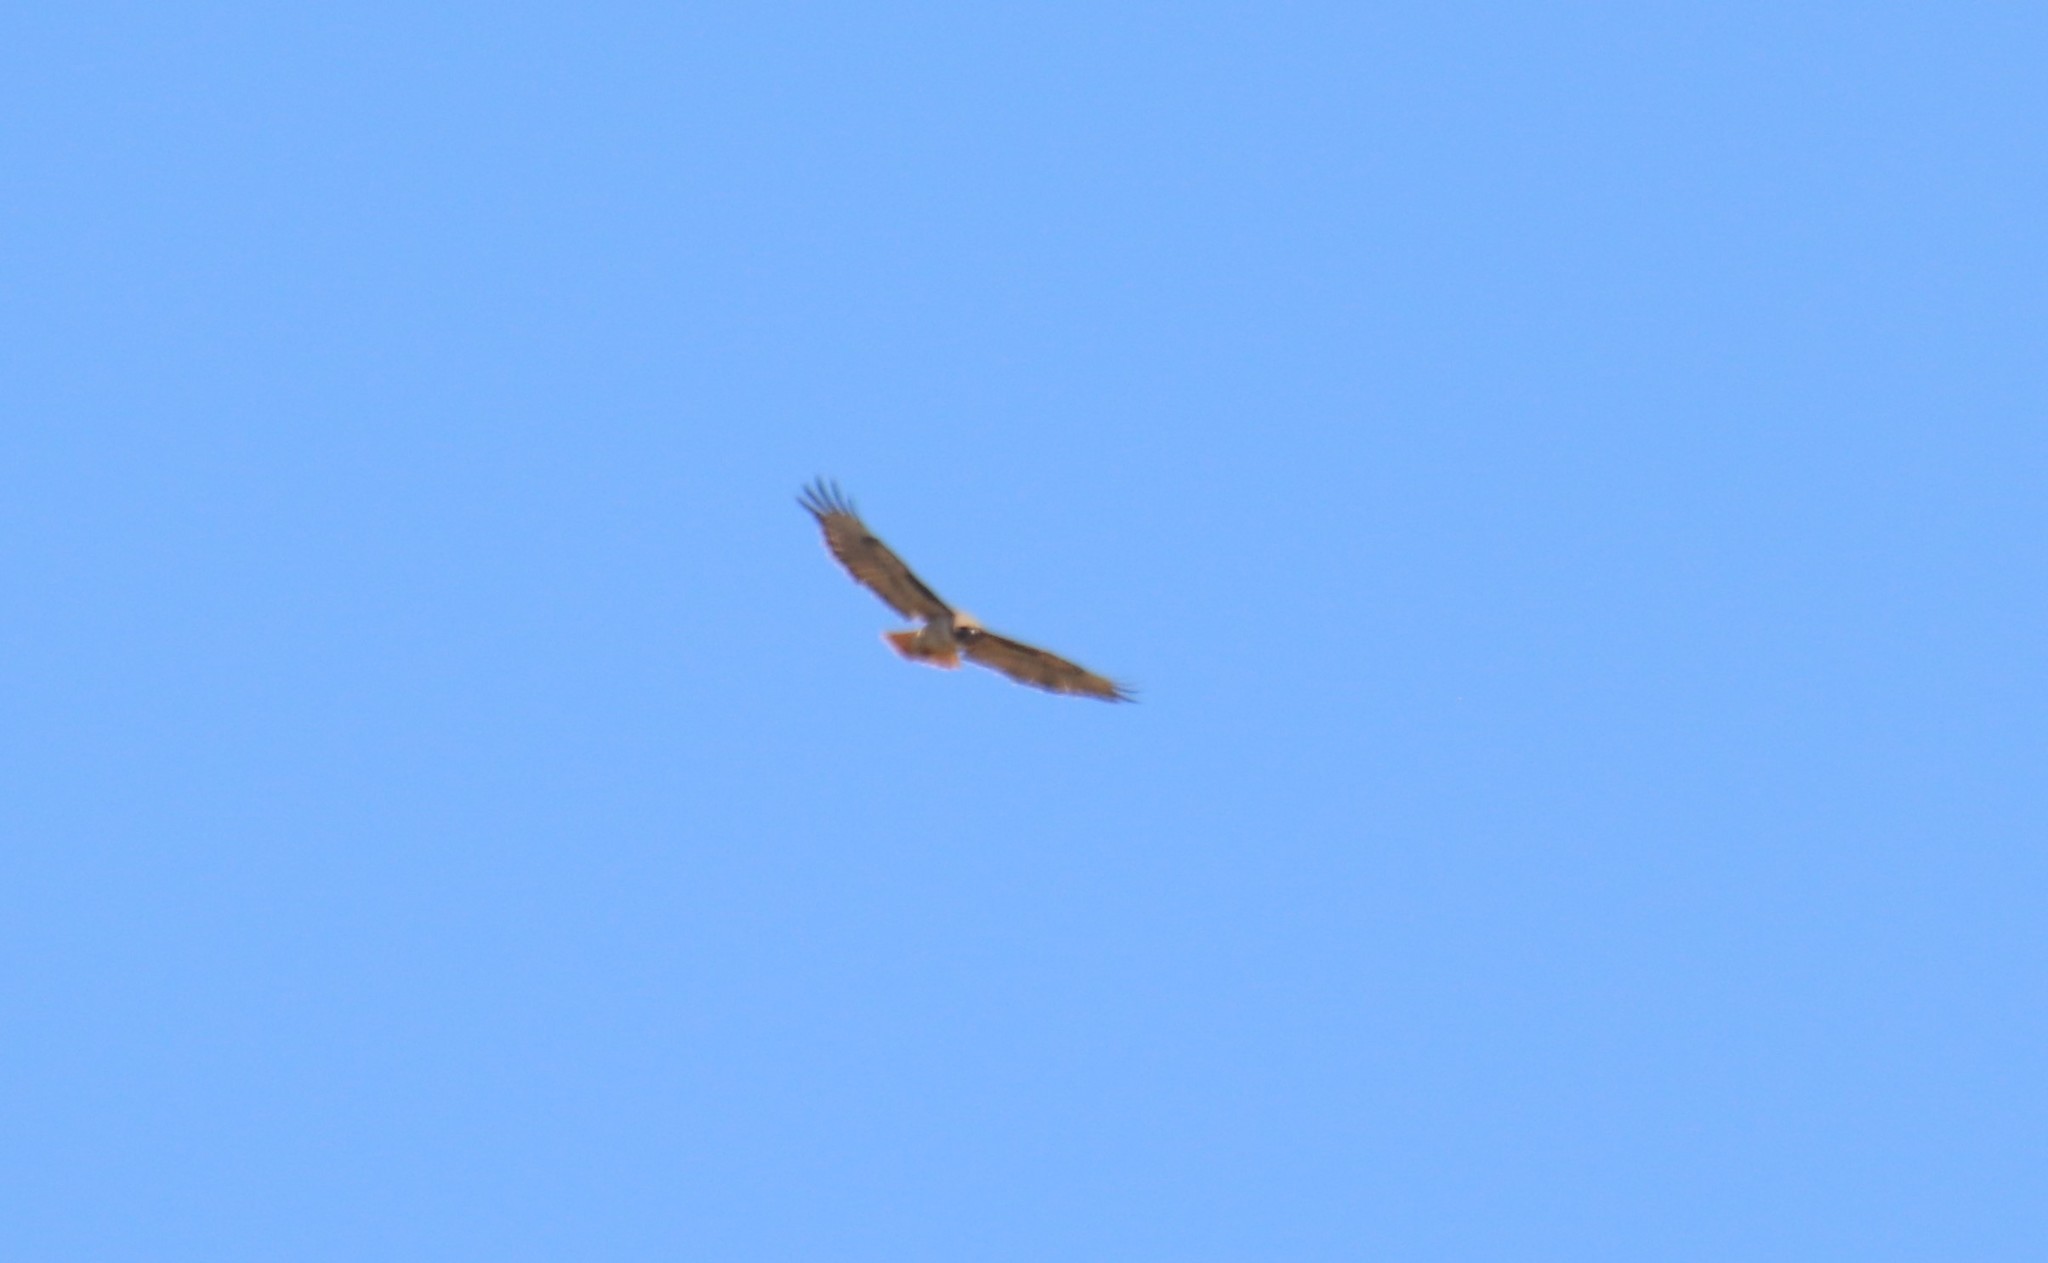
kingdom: Animalia
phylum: Chordata
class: Aves
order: Accipitriformes
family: Accipitridae
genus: Buteo
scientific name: Buteo jamaicensis
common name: Red-tailed hawk
